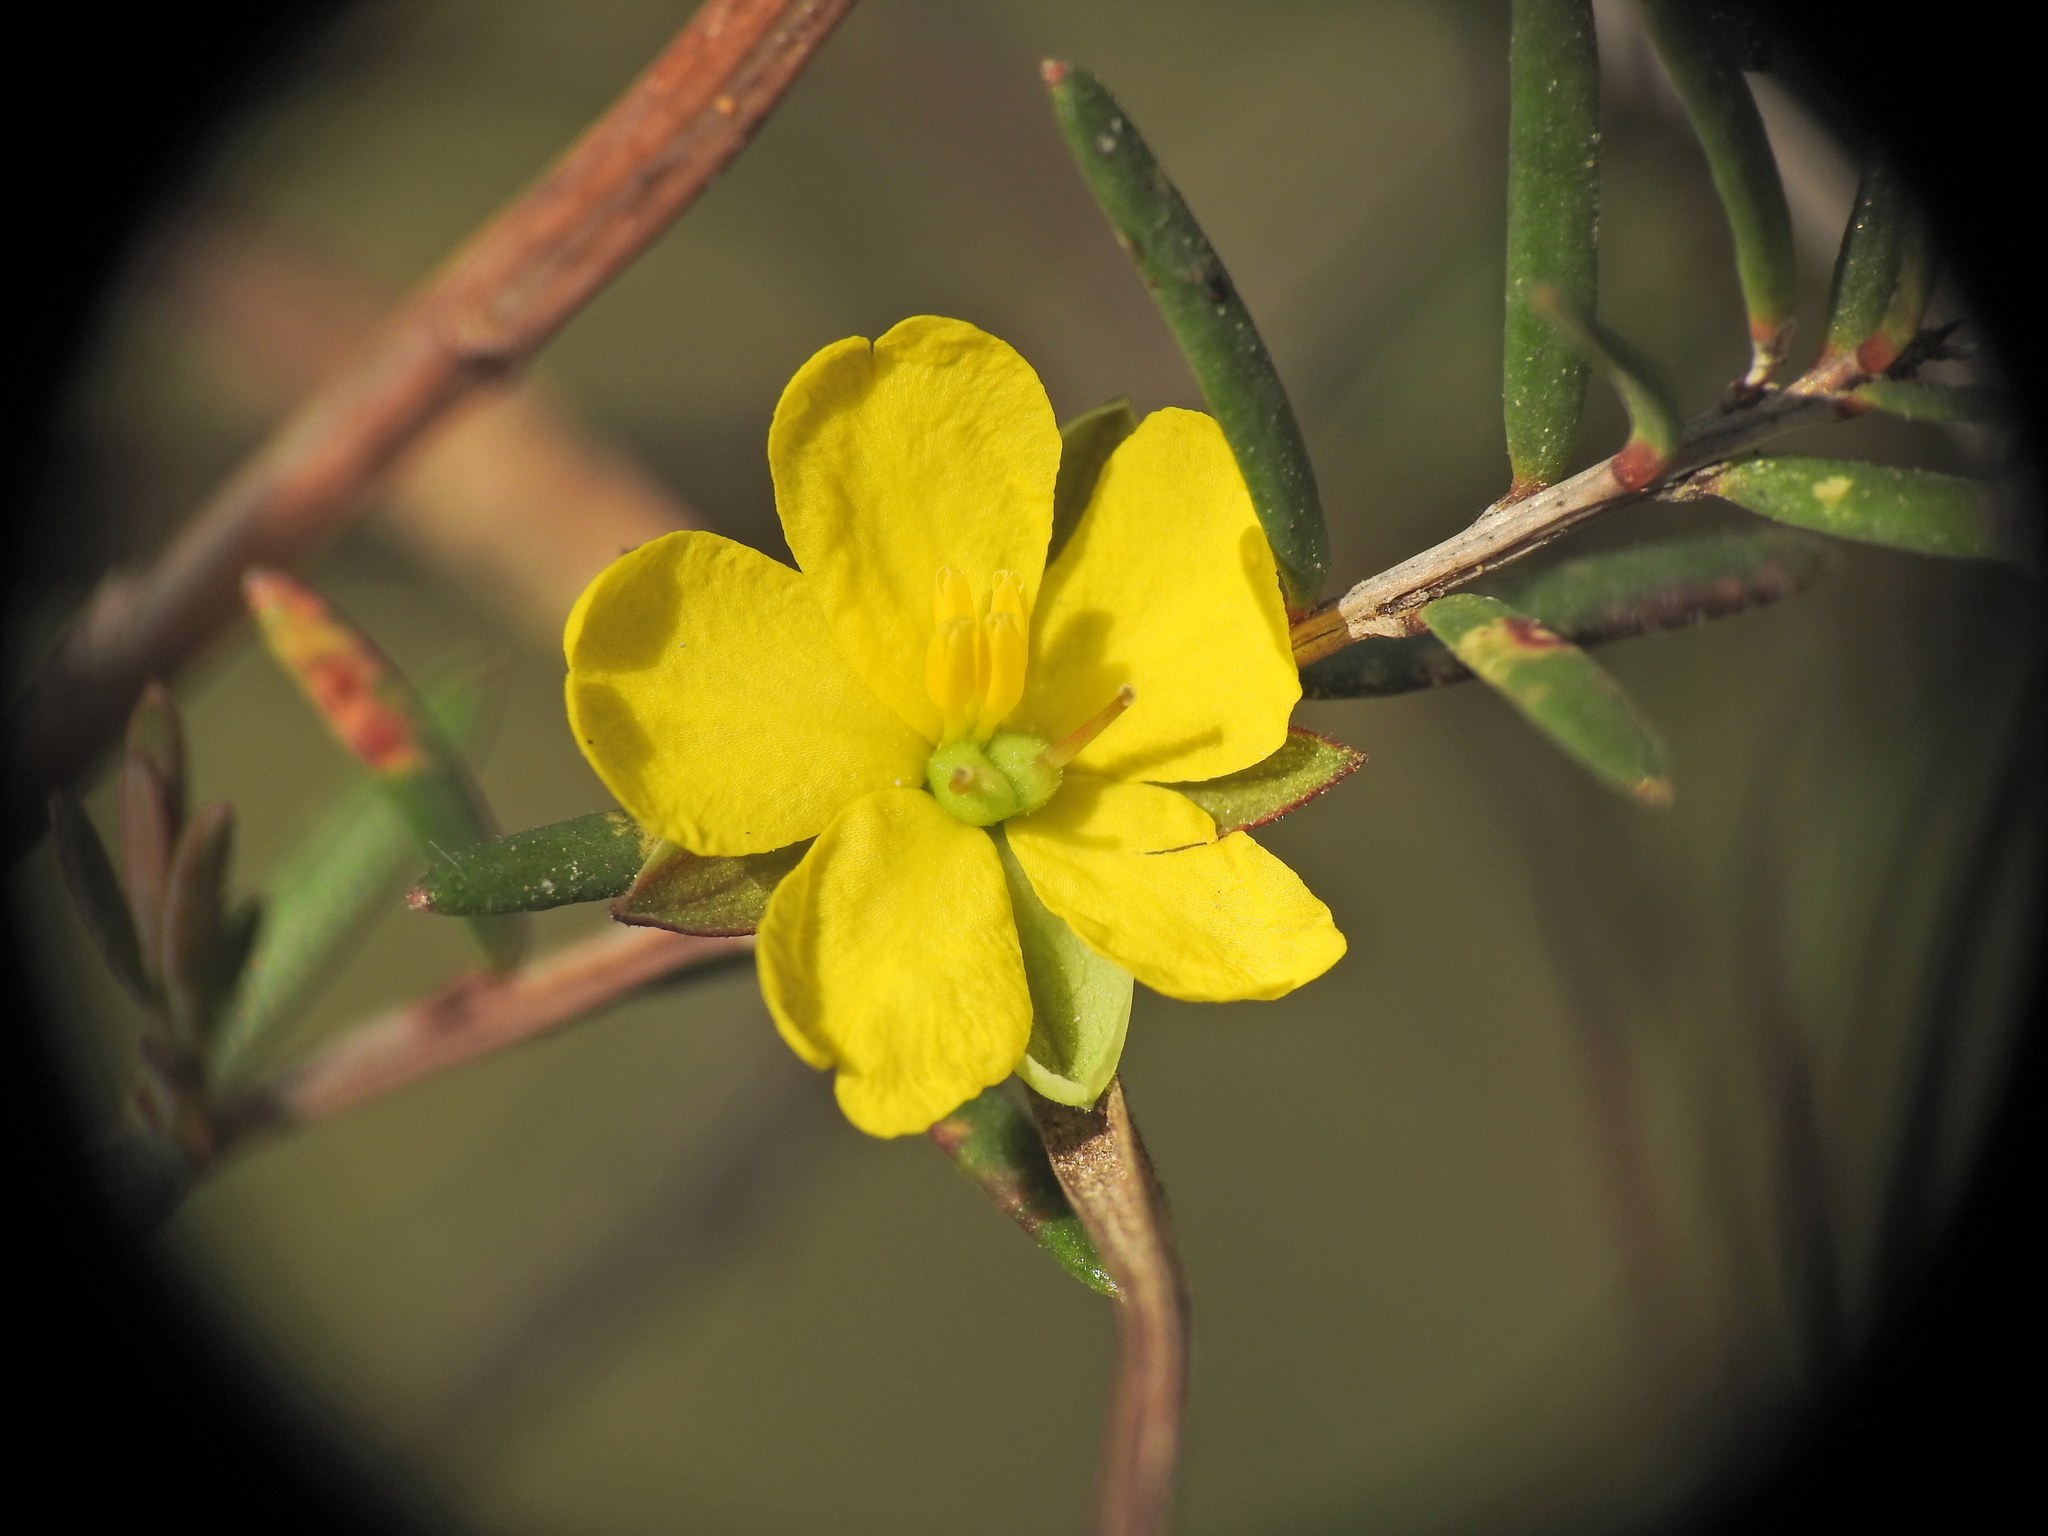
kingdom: Plantae
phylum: Tracheophyta
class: Magnoliopsida
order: Dilleniales
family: Dilleniaceae
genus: Hibbertia
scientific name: Hibbertia stricta
